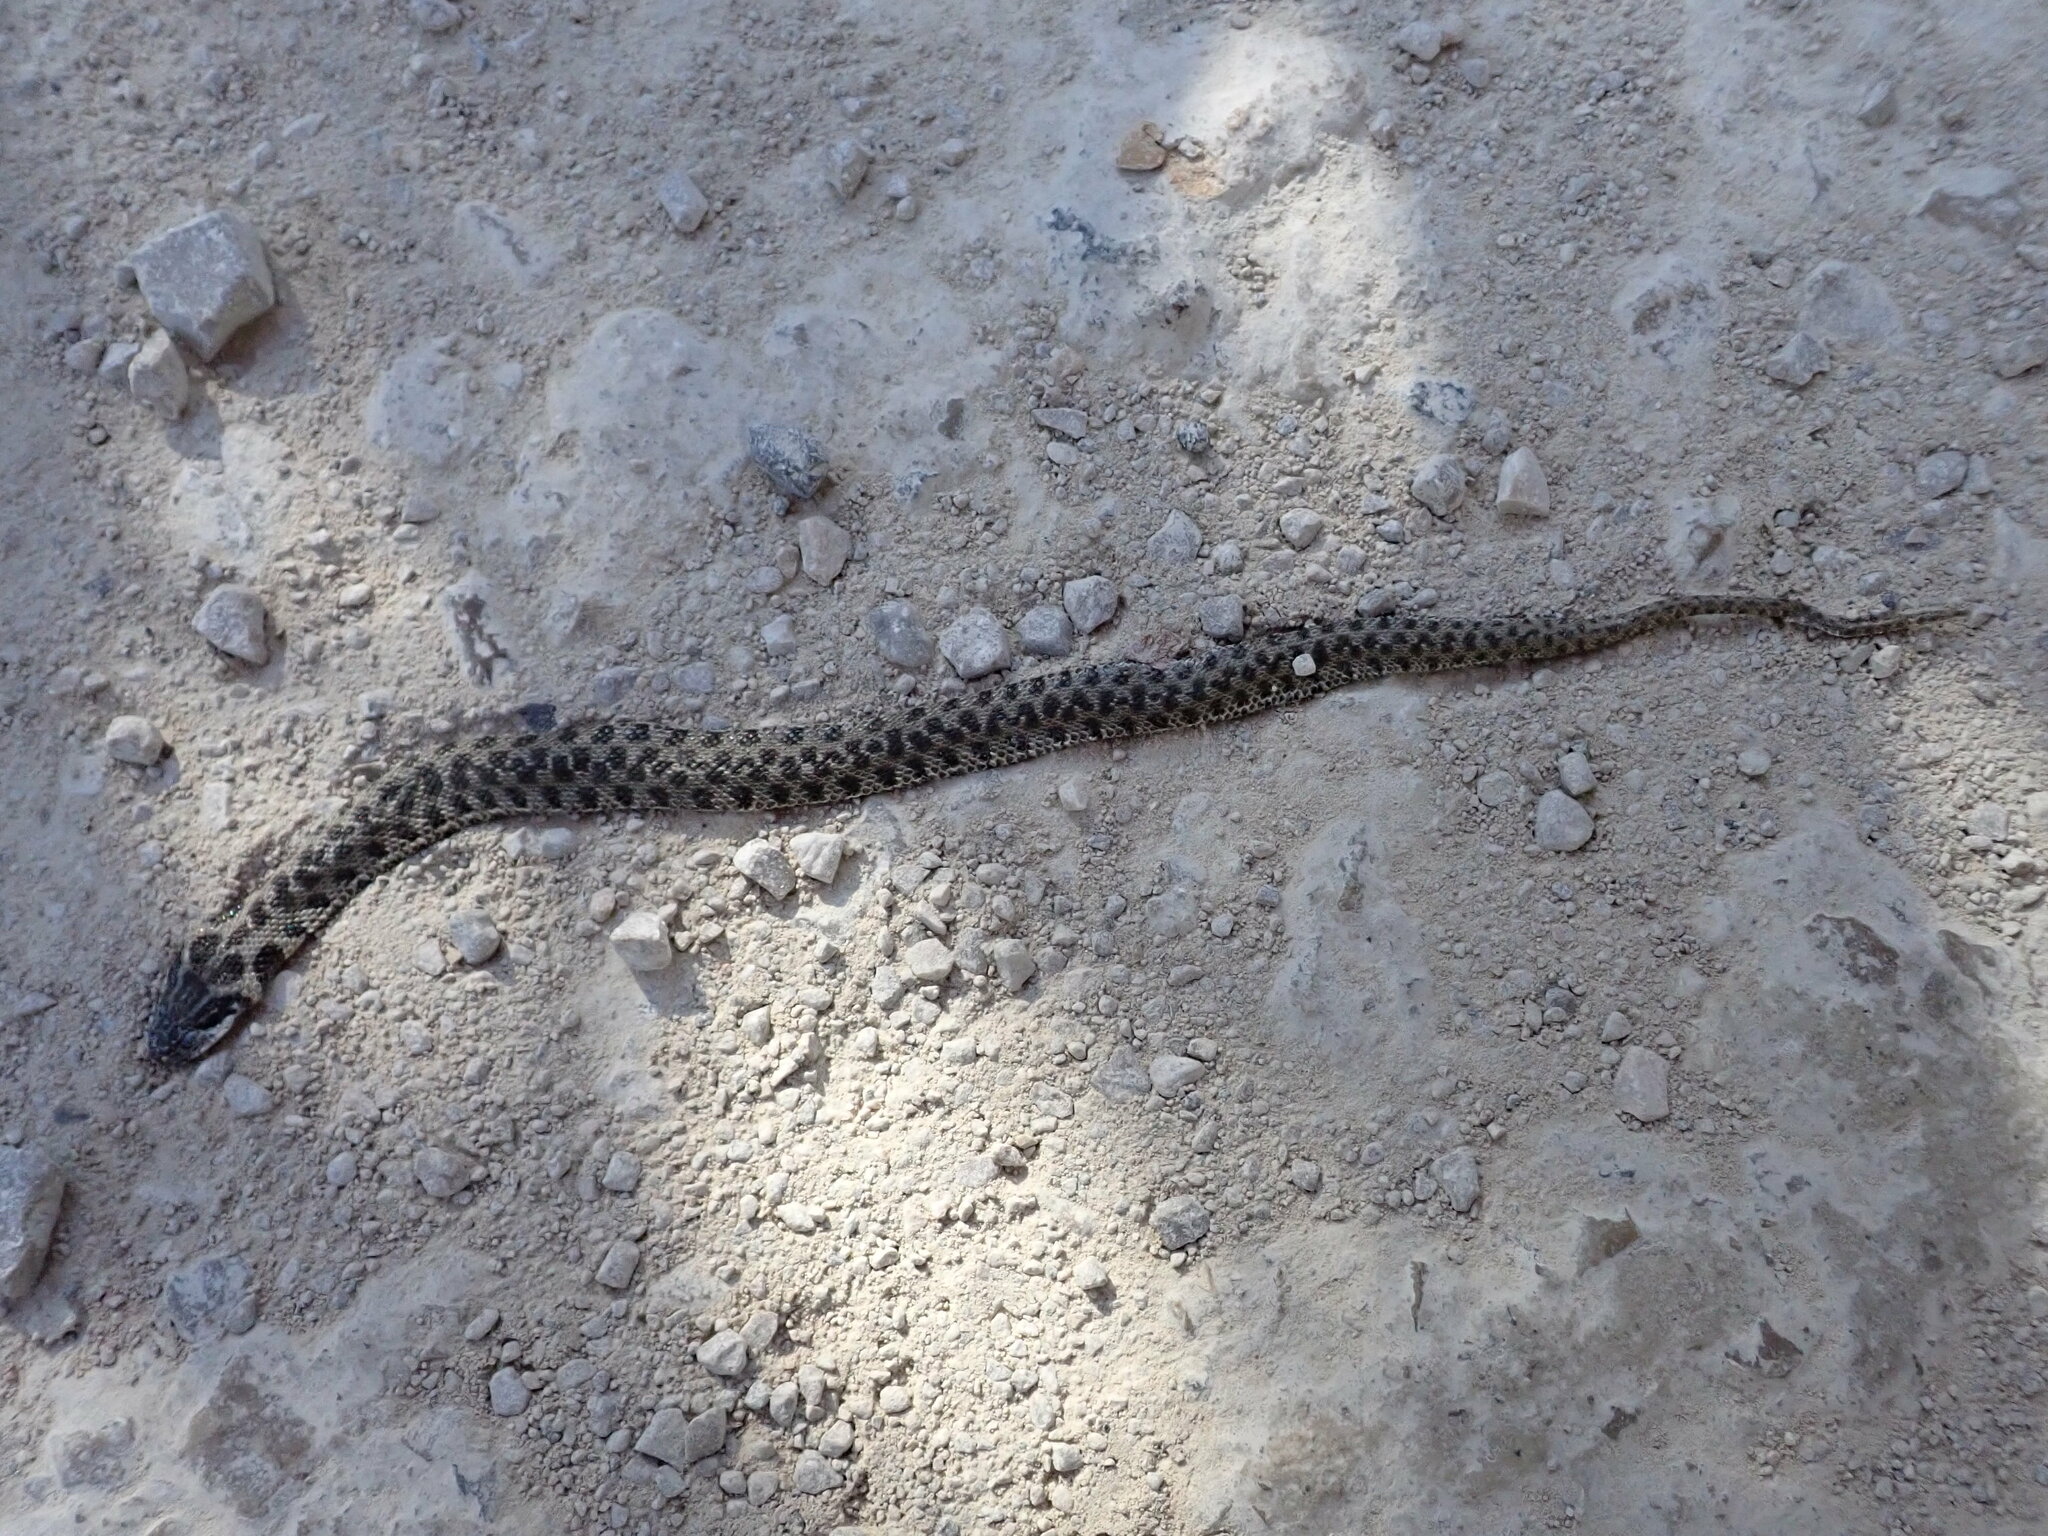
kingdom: Animalia
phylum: Chordata
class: Squamata
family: Colubridae
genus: Natrix
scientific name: Natrix maura
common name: Viperine water snake
